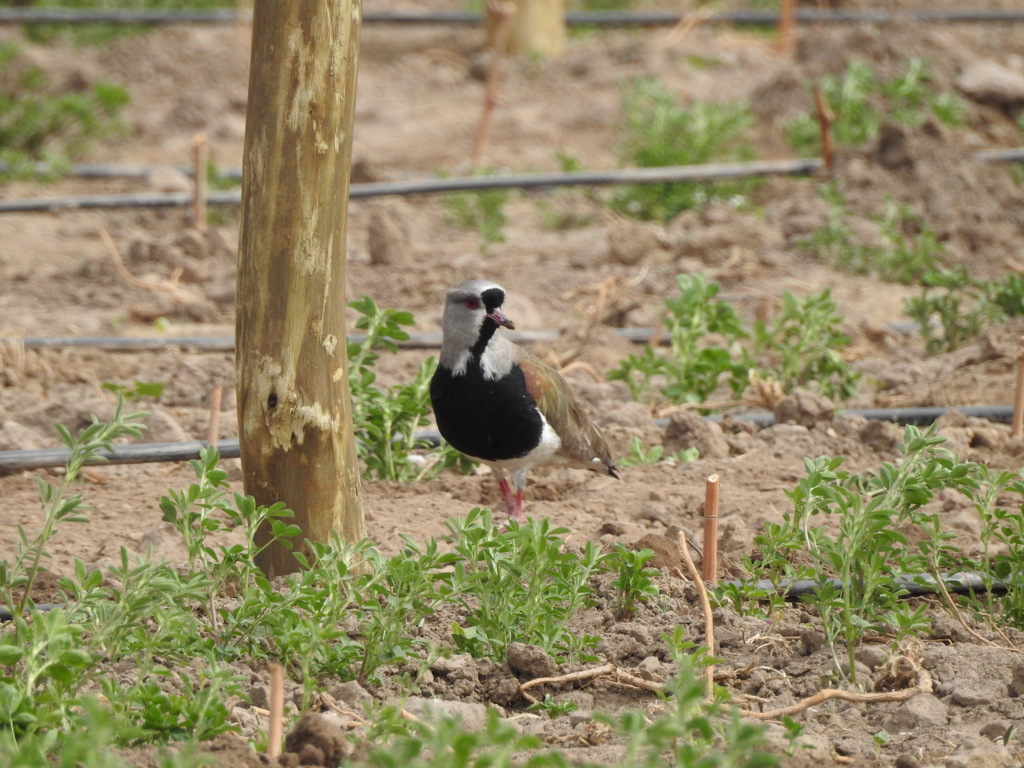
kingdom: Animalia
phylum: Chordata
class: Aves
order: Charadriiformes
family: Charadriidae
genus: Vanellus
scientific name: Vanellus chilensis
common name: Southern lapwing
